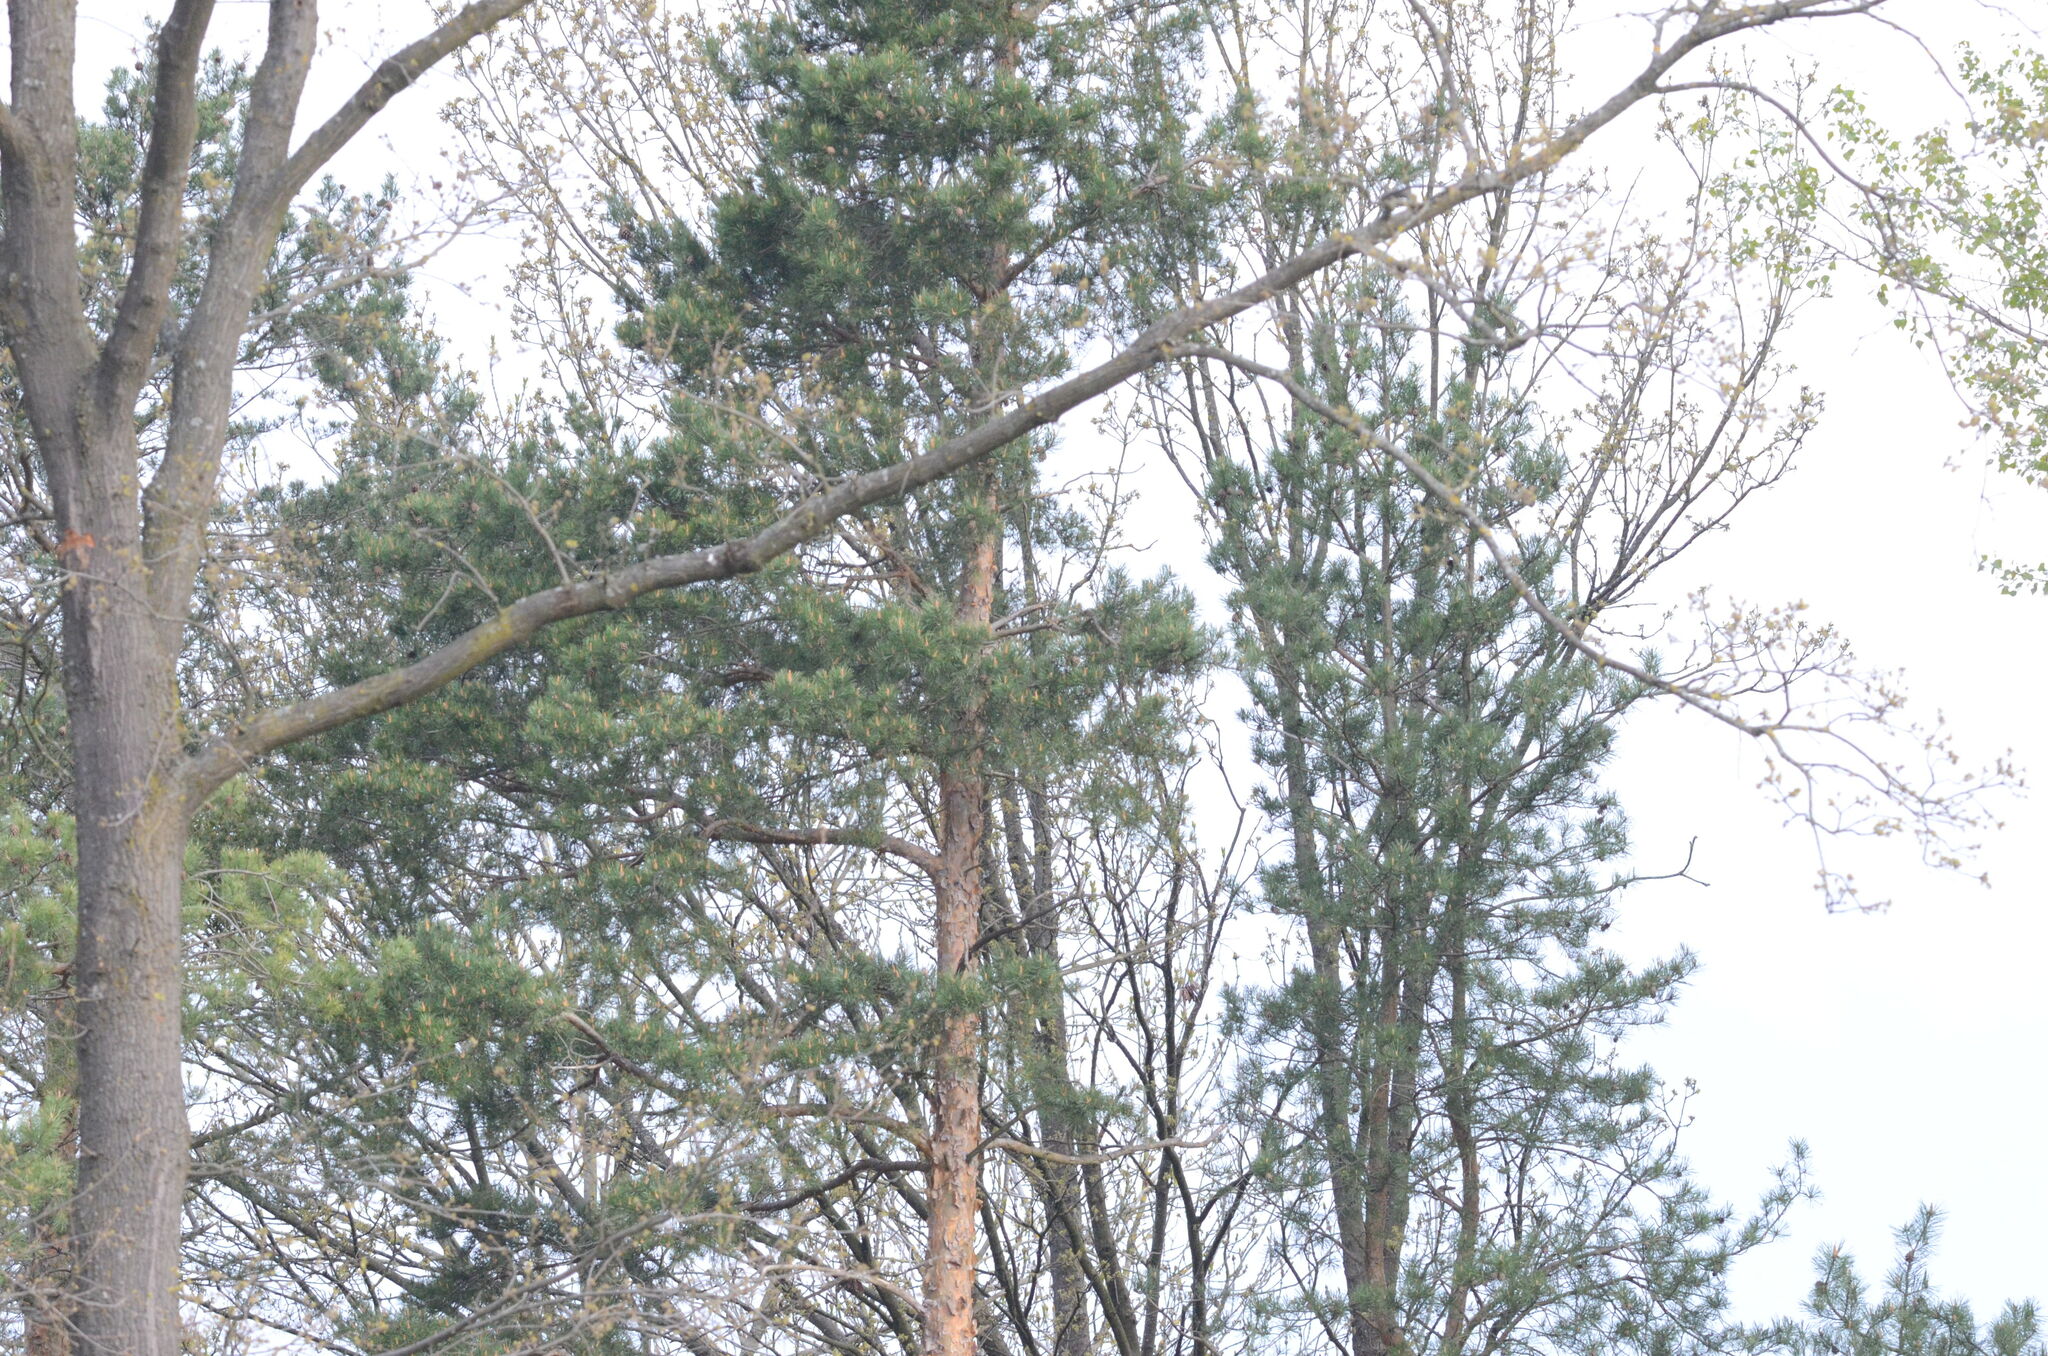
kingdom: Plantae
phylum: Tracheophyta
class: Pinopsida
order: Pinales
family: Pinaceae
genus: Pinus
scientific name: Pinus sylvestris
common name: Scots pine
